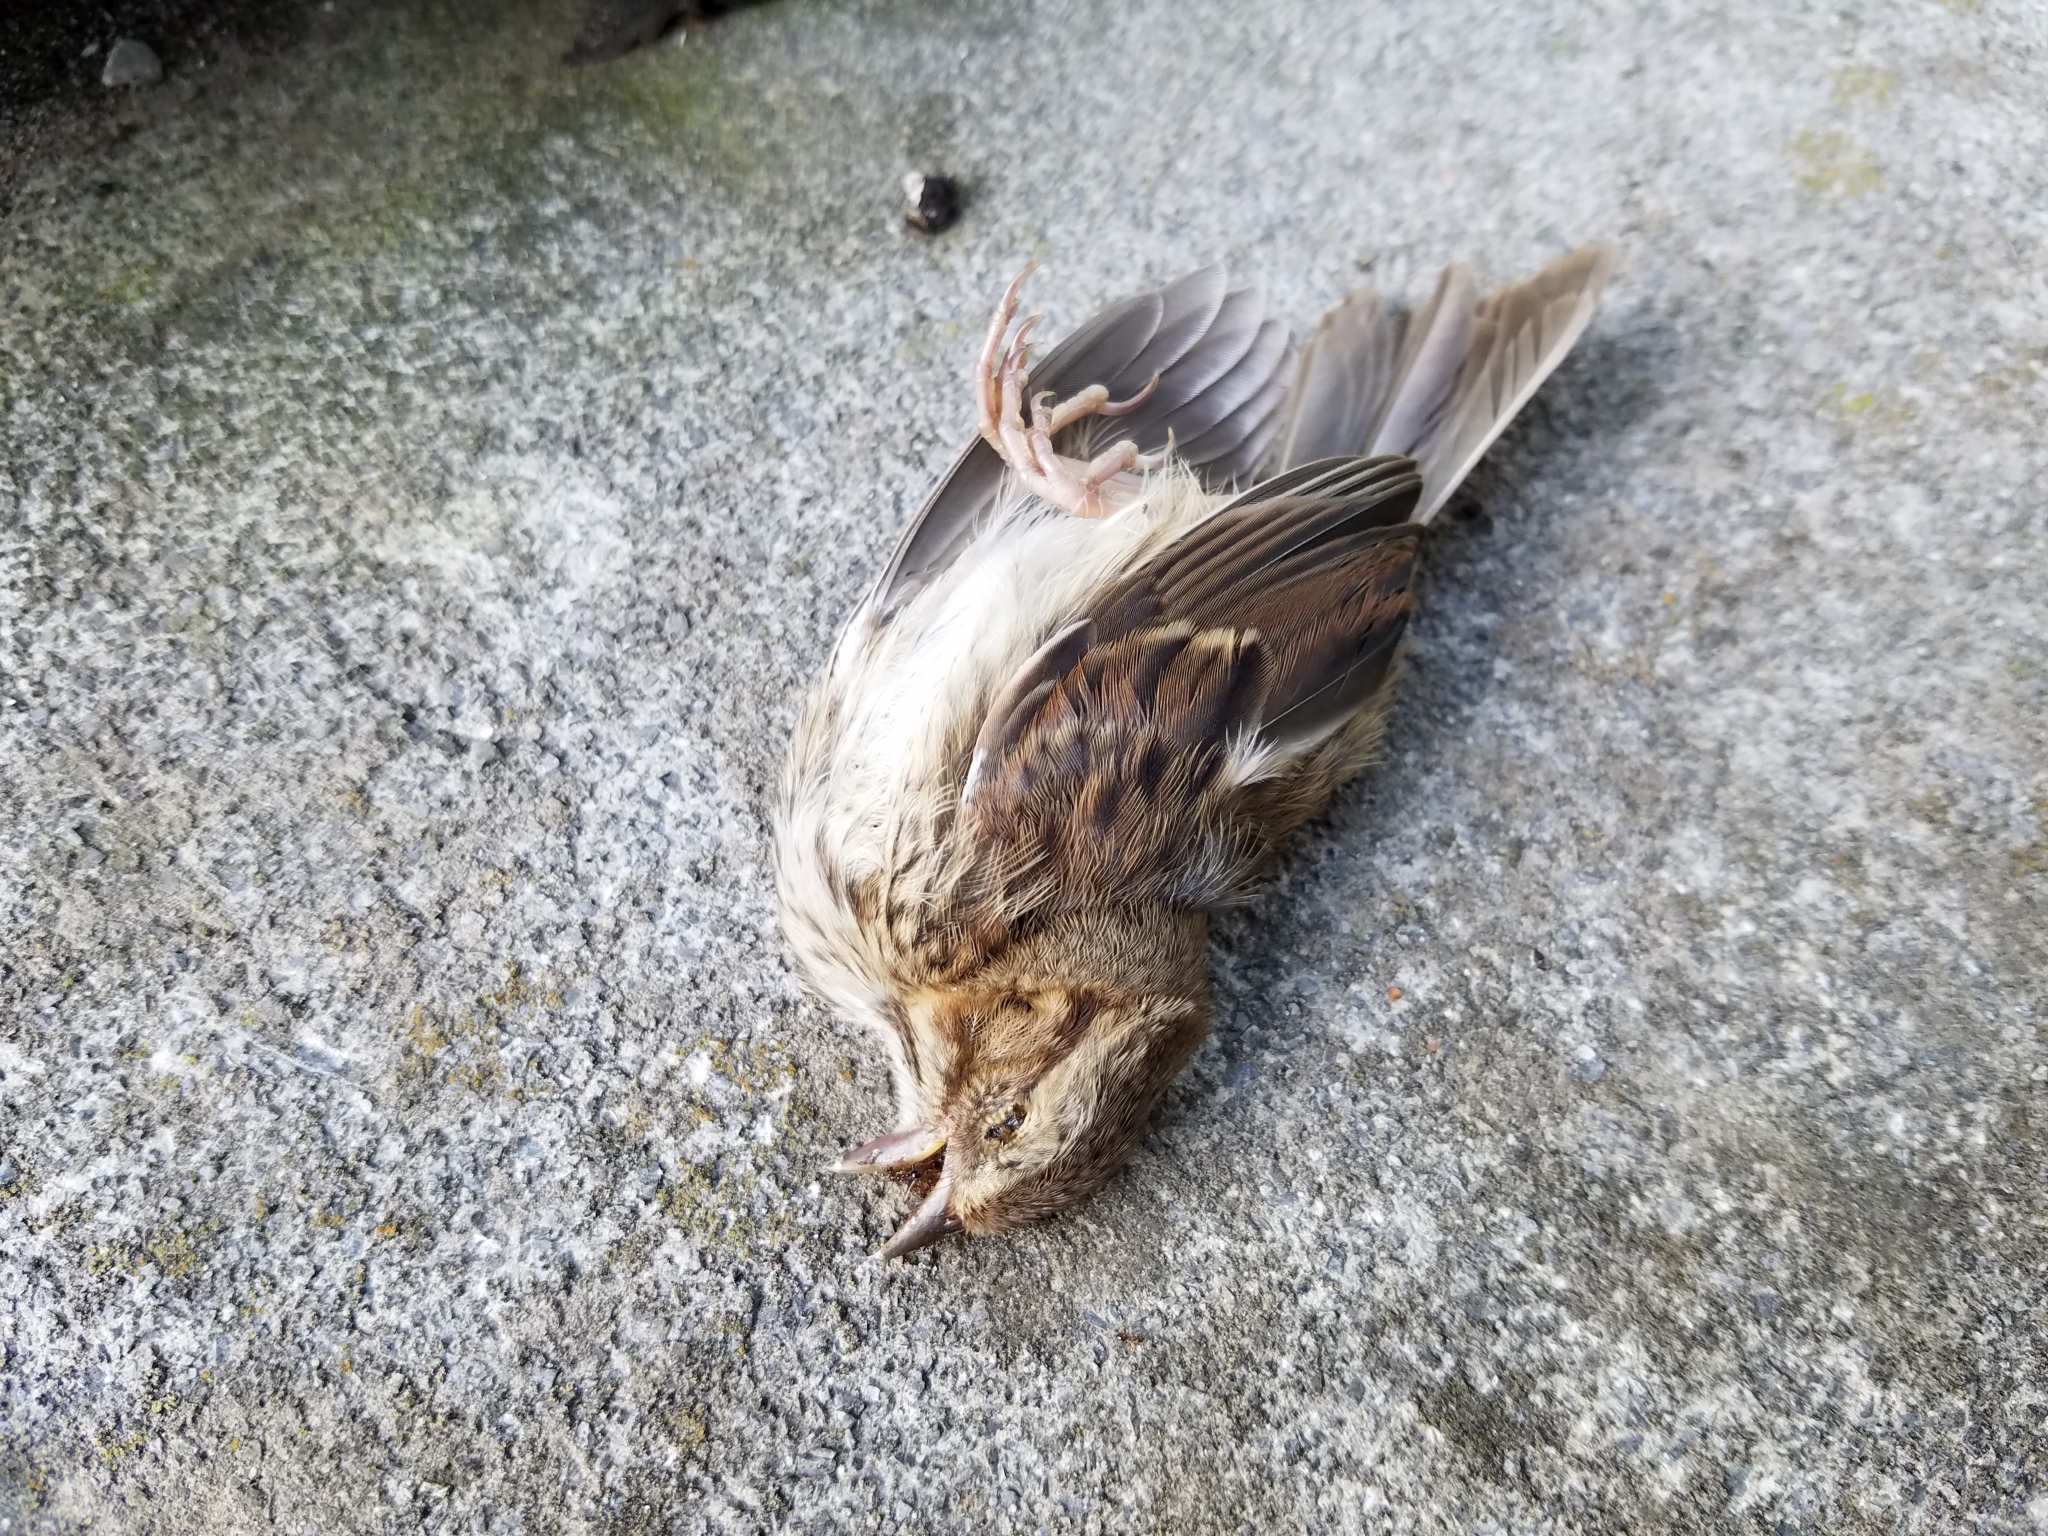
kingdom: Animalia
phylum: Chordata
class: Aves
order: Passeriformes
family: Passerellidae
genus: Melospiza
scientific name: Melospiza melodia
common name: Song sparrow
